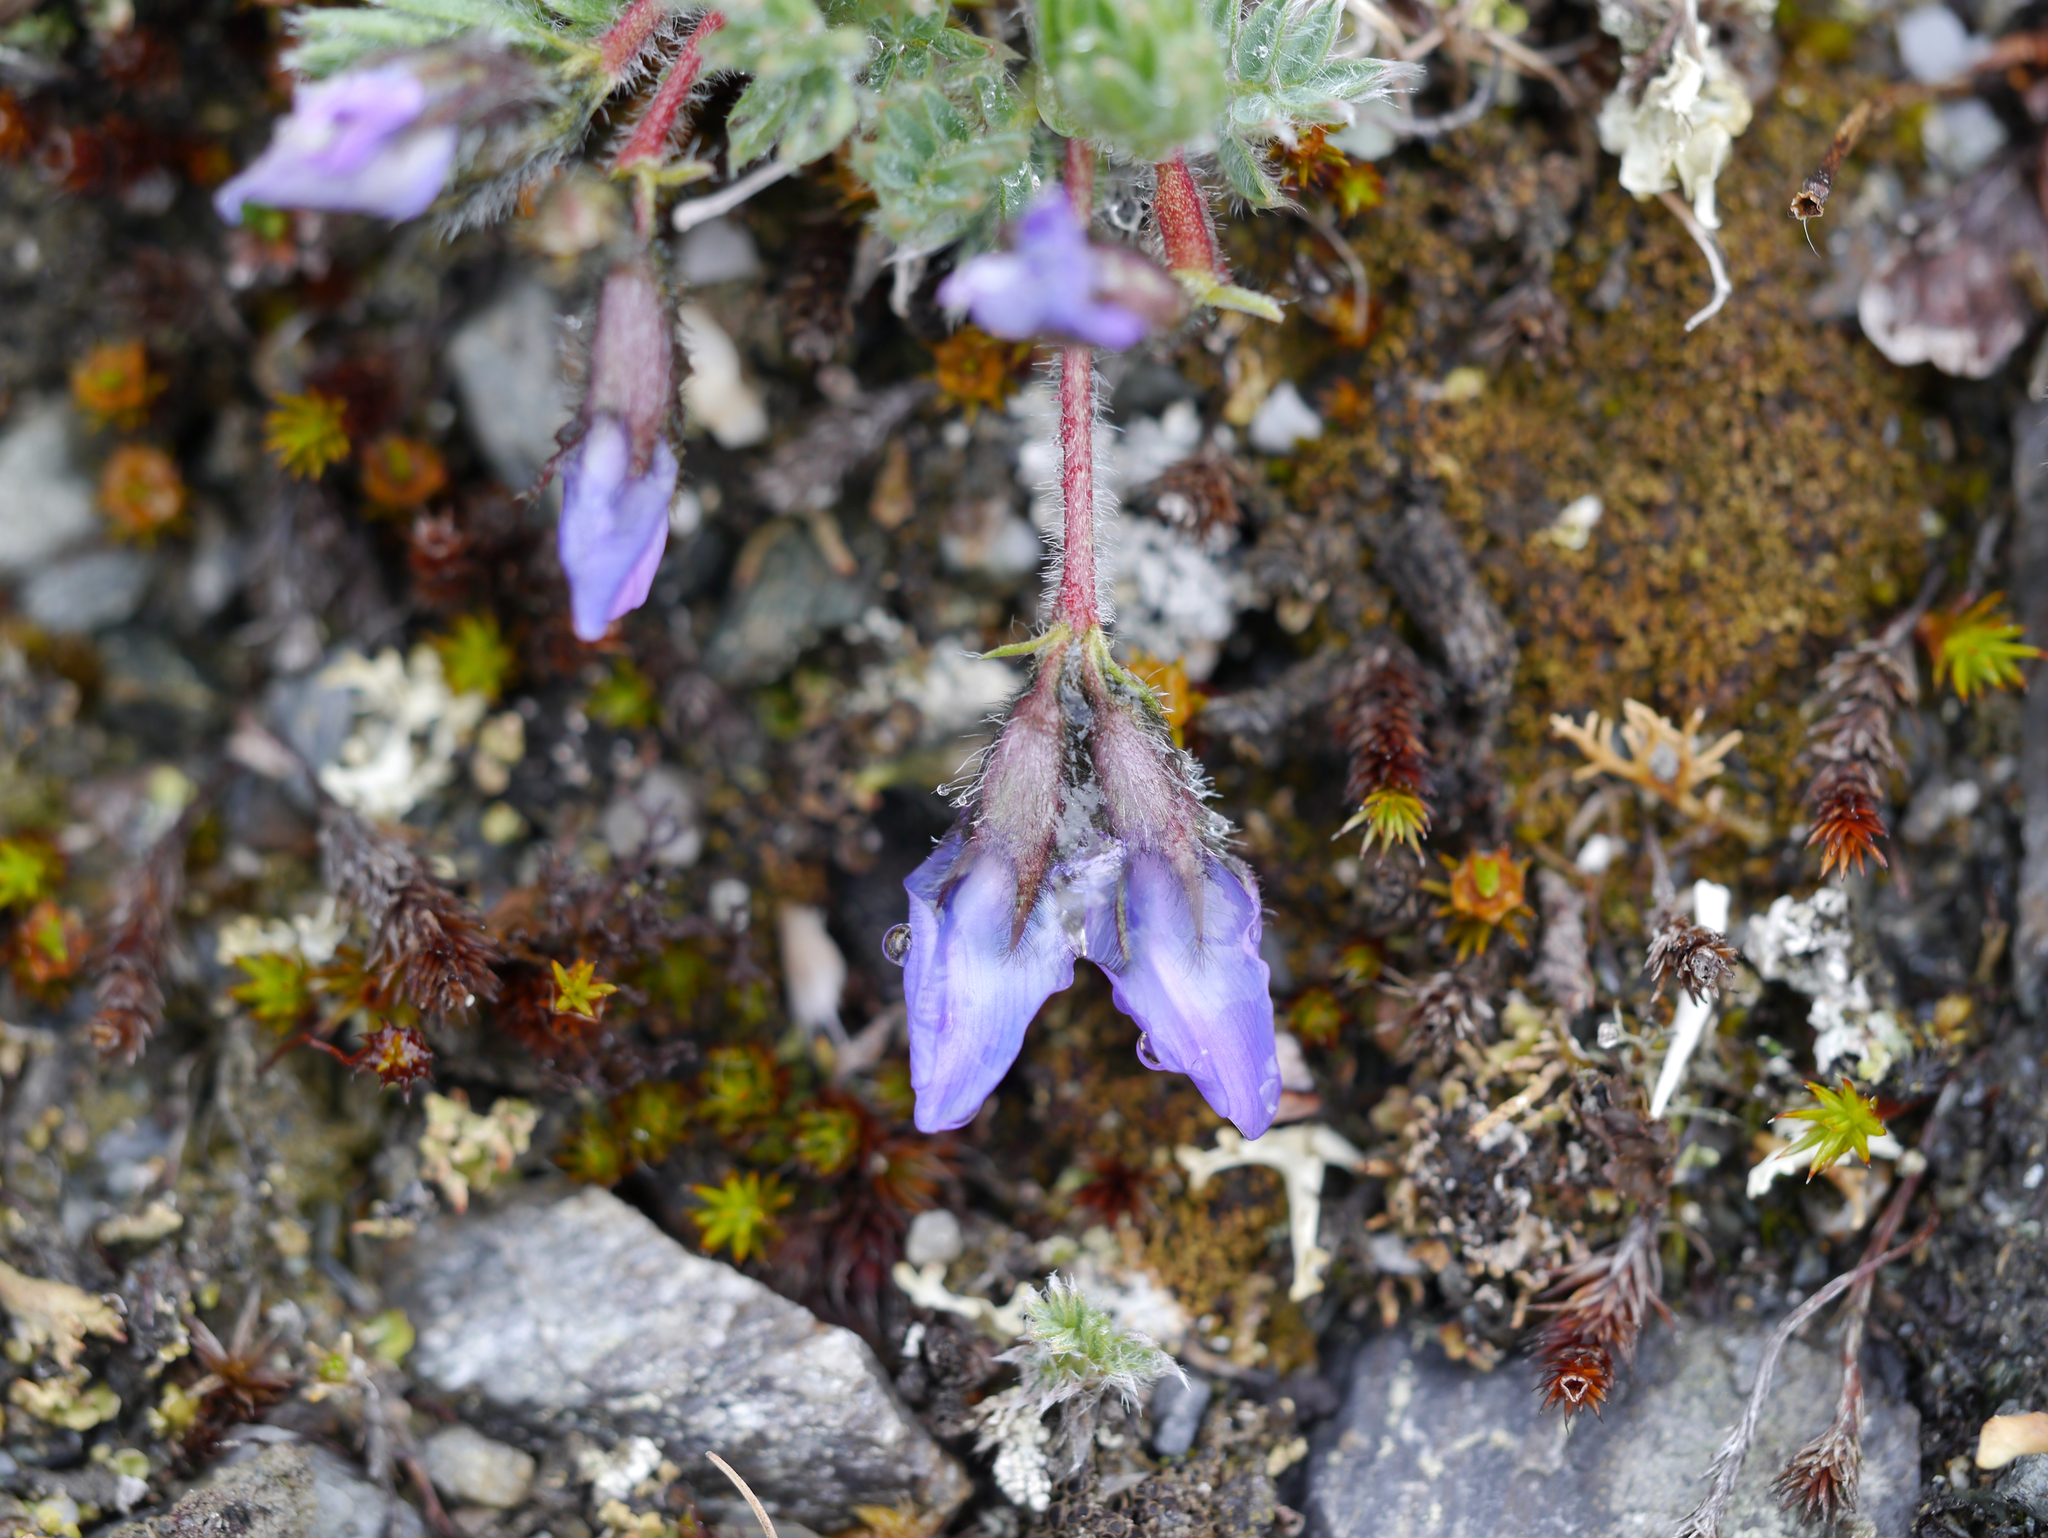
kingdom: Plantae
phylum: Tracheophyta
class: Magnoliopsida
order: Fabales
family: Fabaceae
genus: Oxytropis
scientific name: Oxytropis nigrescens
